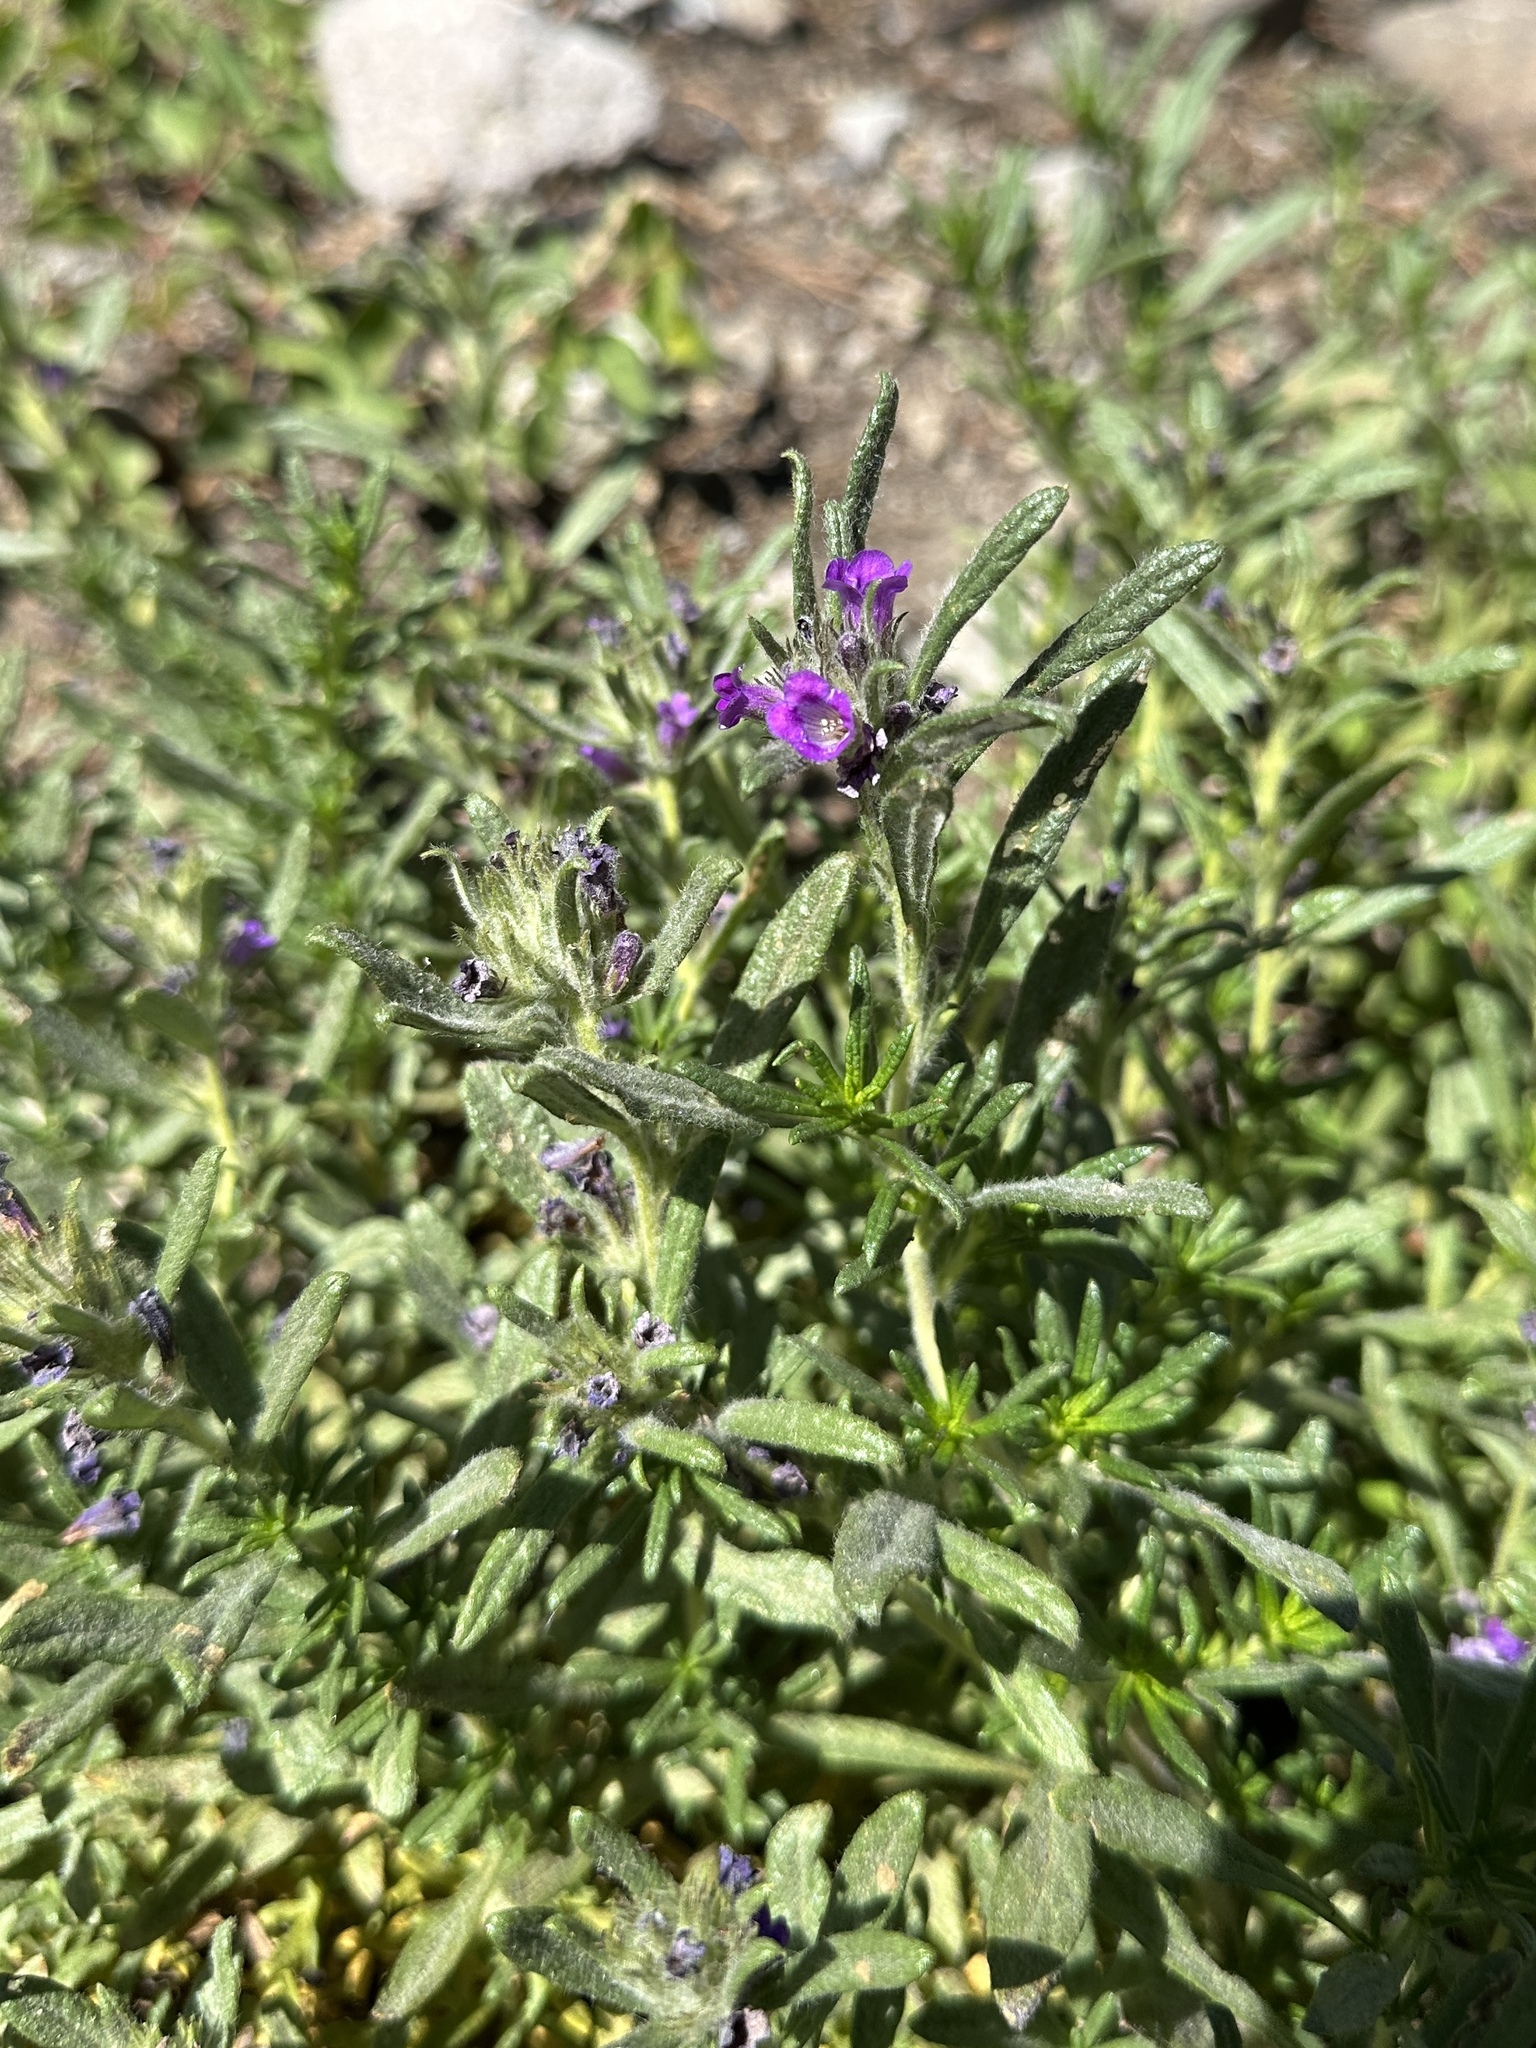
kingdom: Plantae
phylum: Tracheophyta
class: Magnoliopsida
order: Boraginales
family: Namaceae
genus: Nama
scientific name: Nama lobbii
